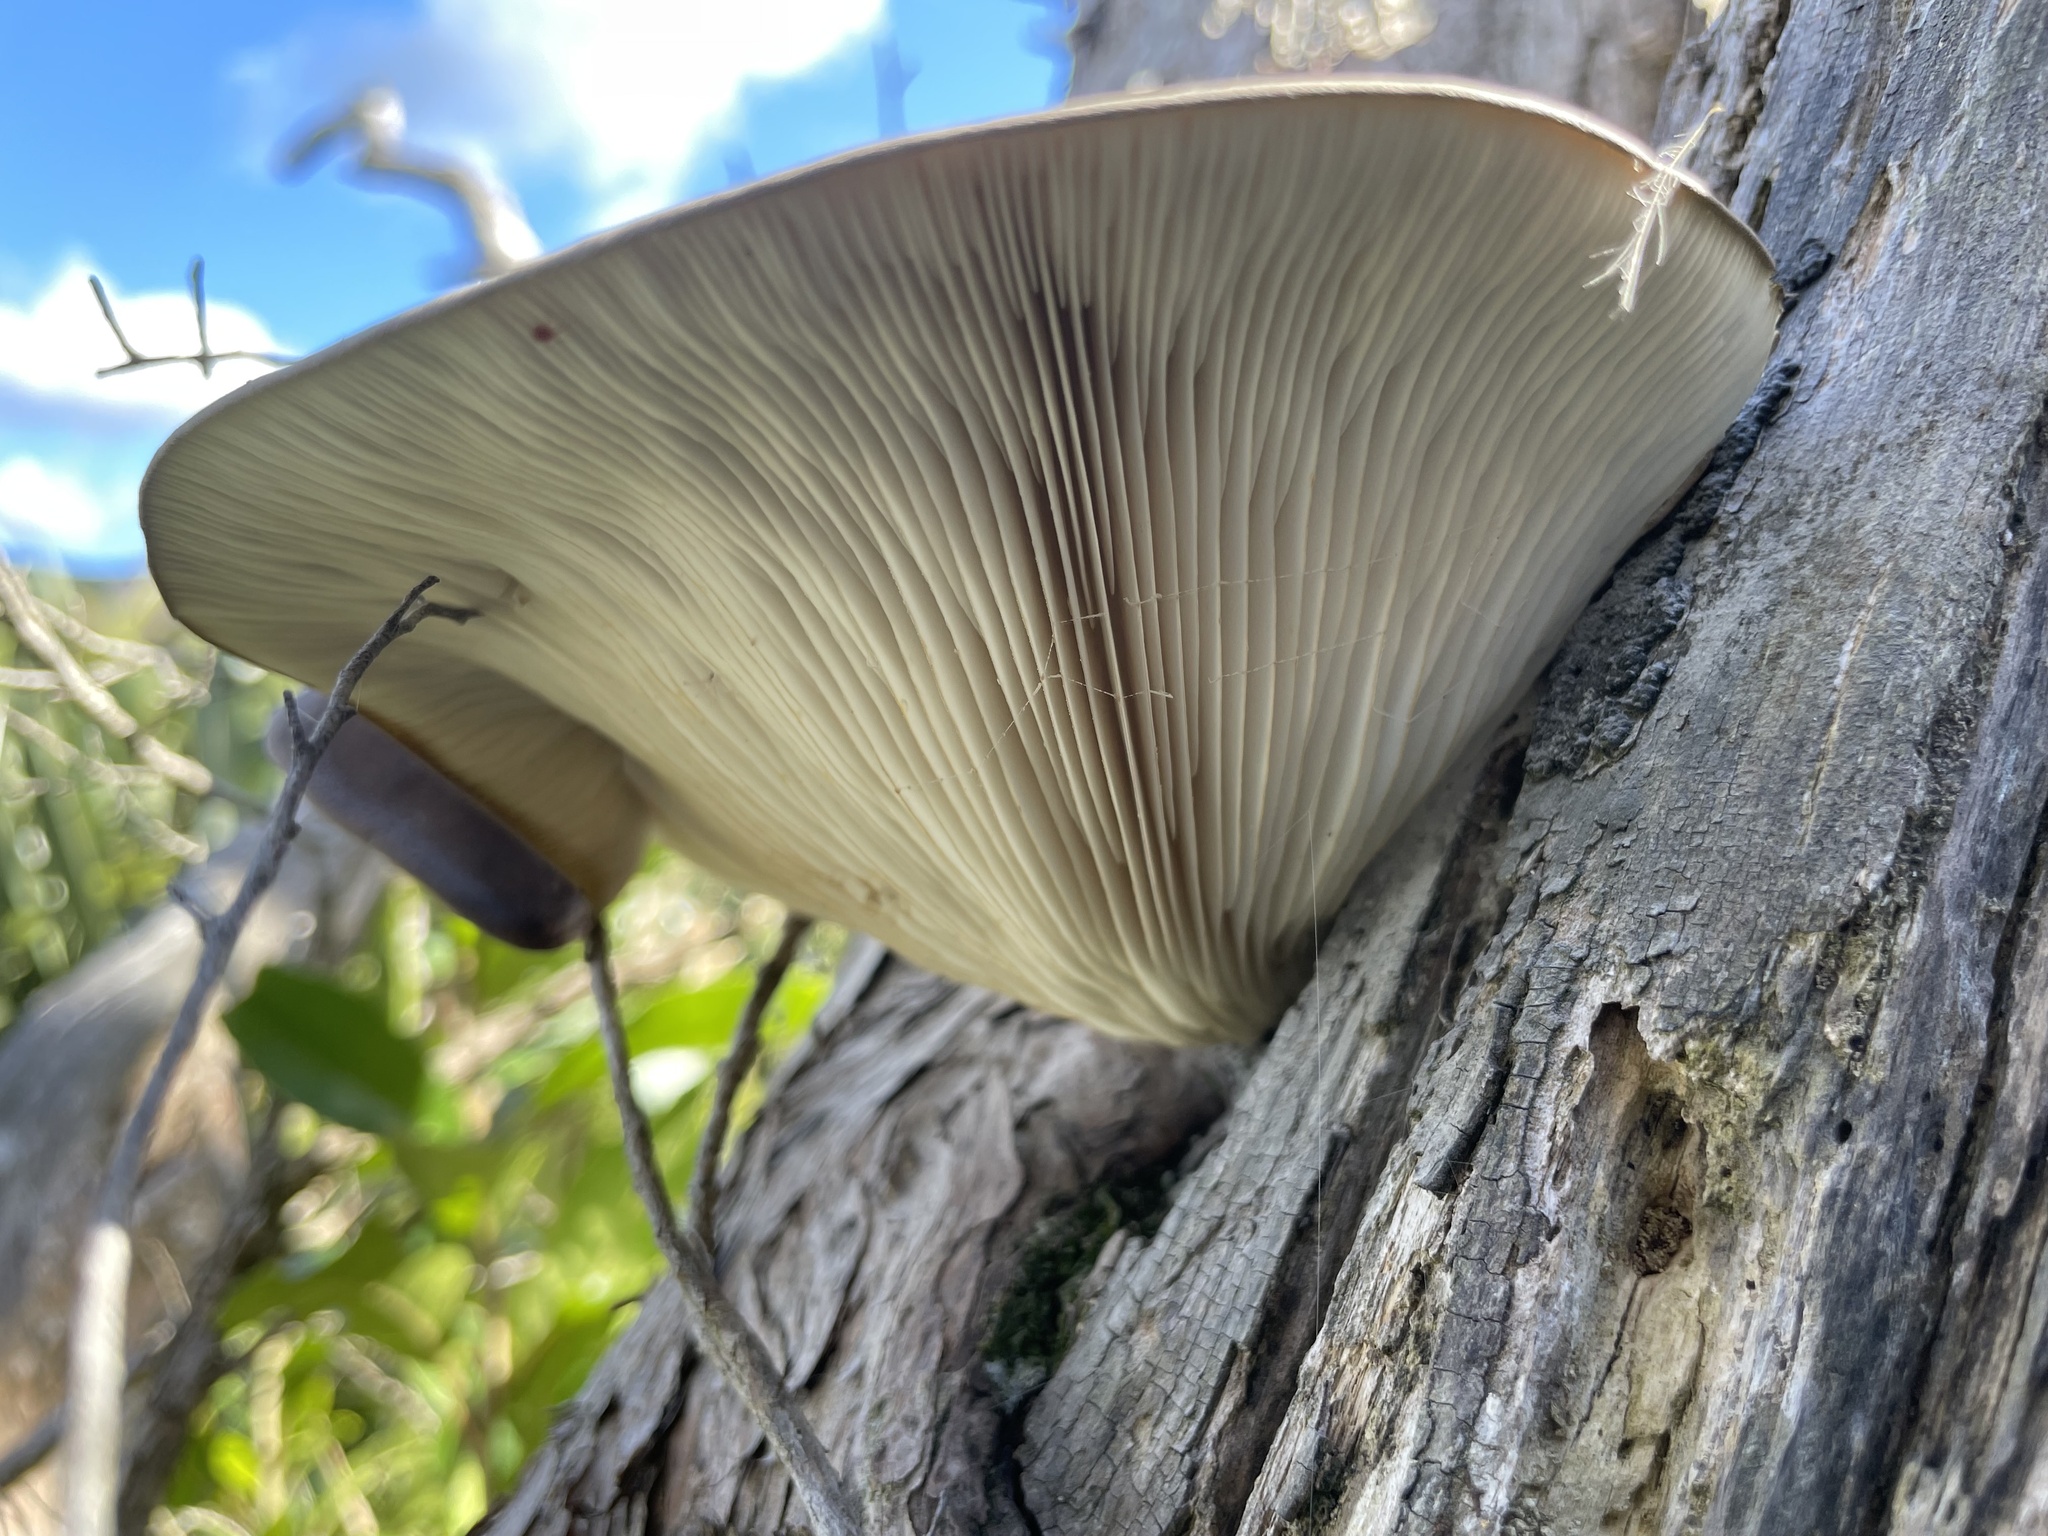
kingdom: Fungi
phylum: Basidiomycota
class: Agaricomycetes
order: Agaricales
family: Pleurotaceae
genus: Pleurotus
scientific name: Pleurotus australis
